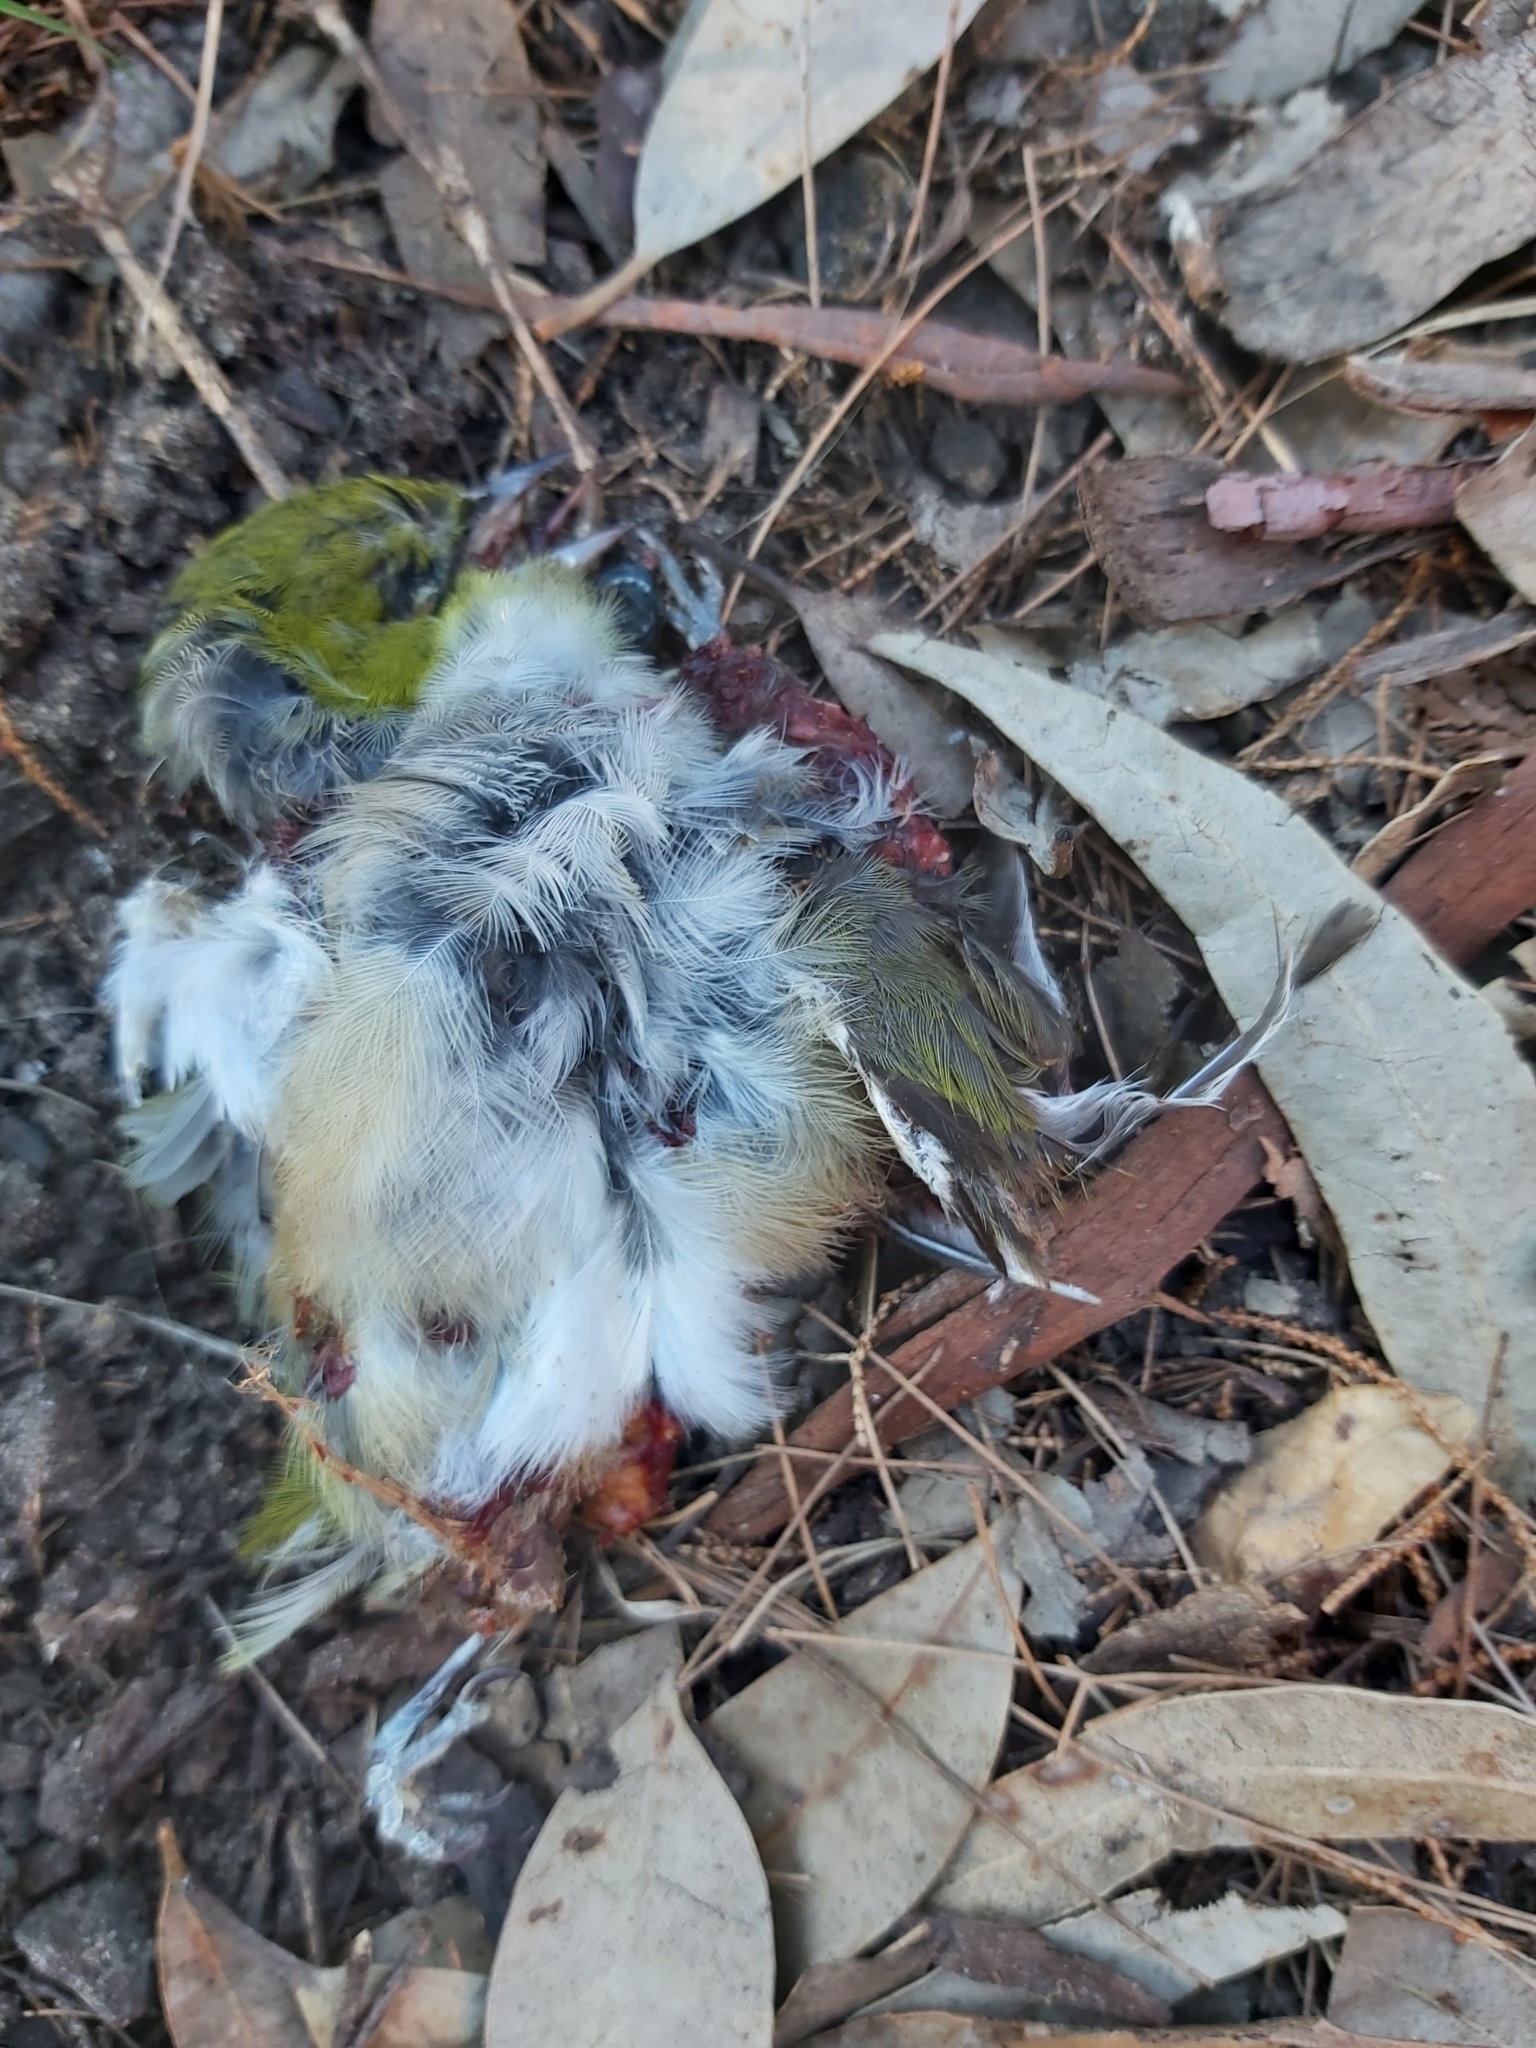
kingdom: Animalia
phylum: Chordata
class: Aves
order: Passeriformes
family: Zosteropidae
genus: Zosterops
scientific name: Zosterops lateralis
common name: Silvereye
